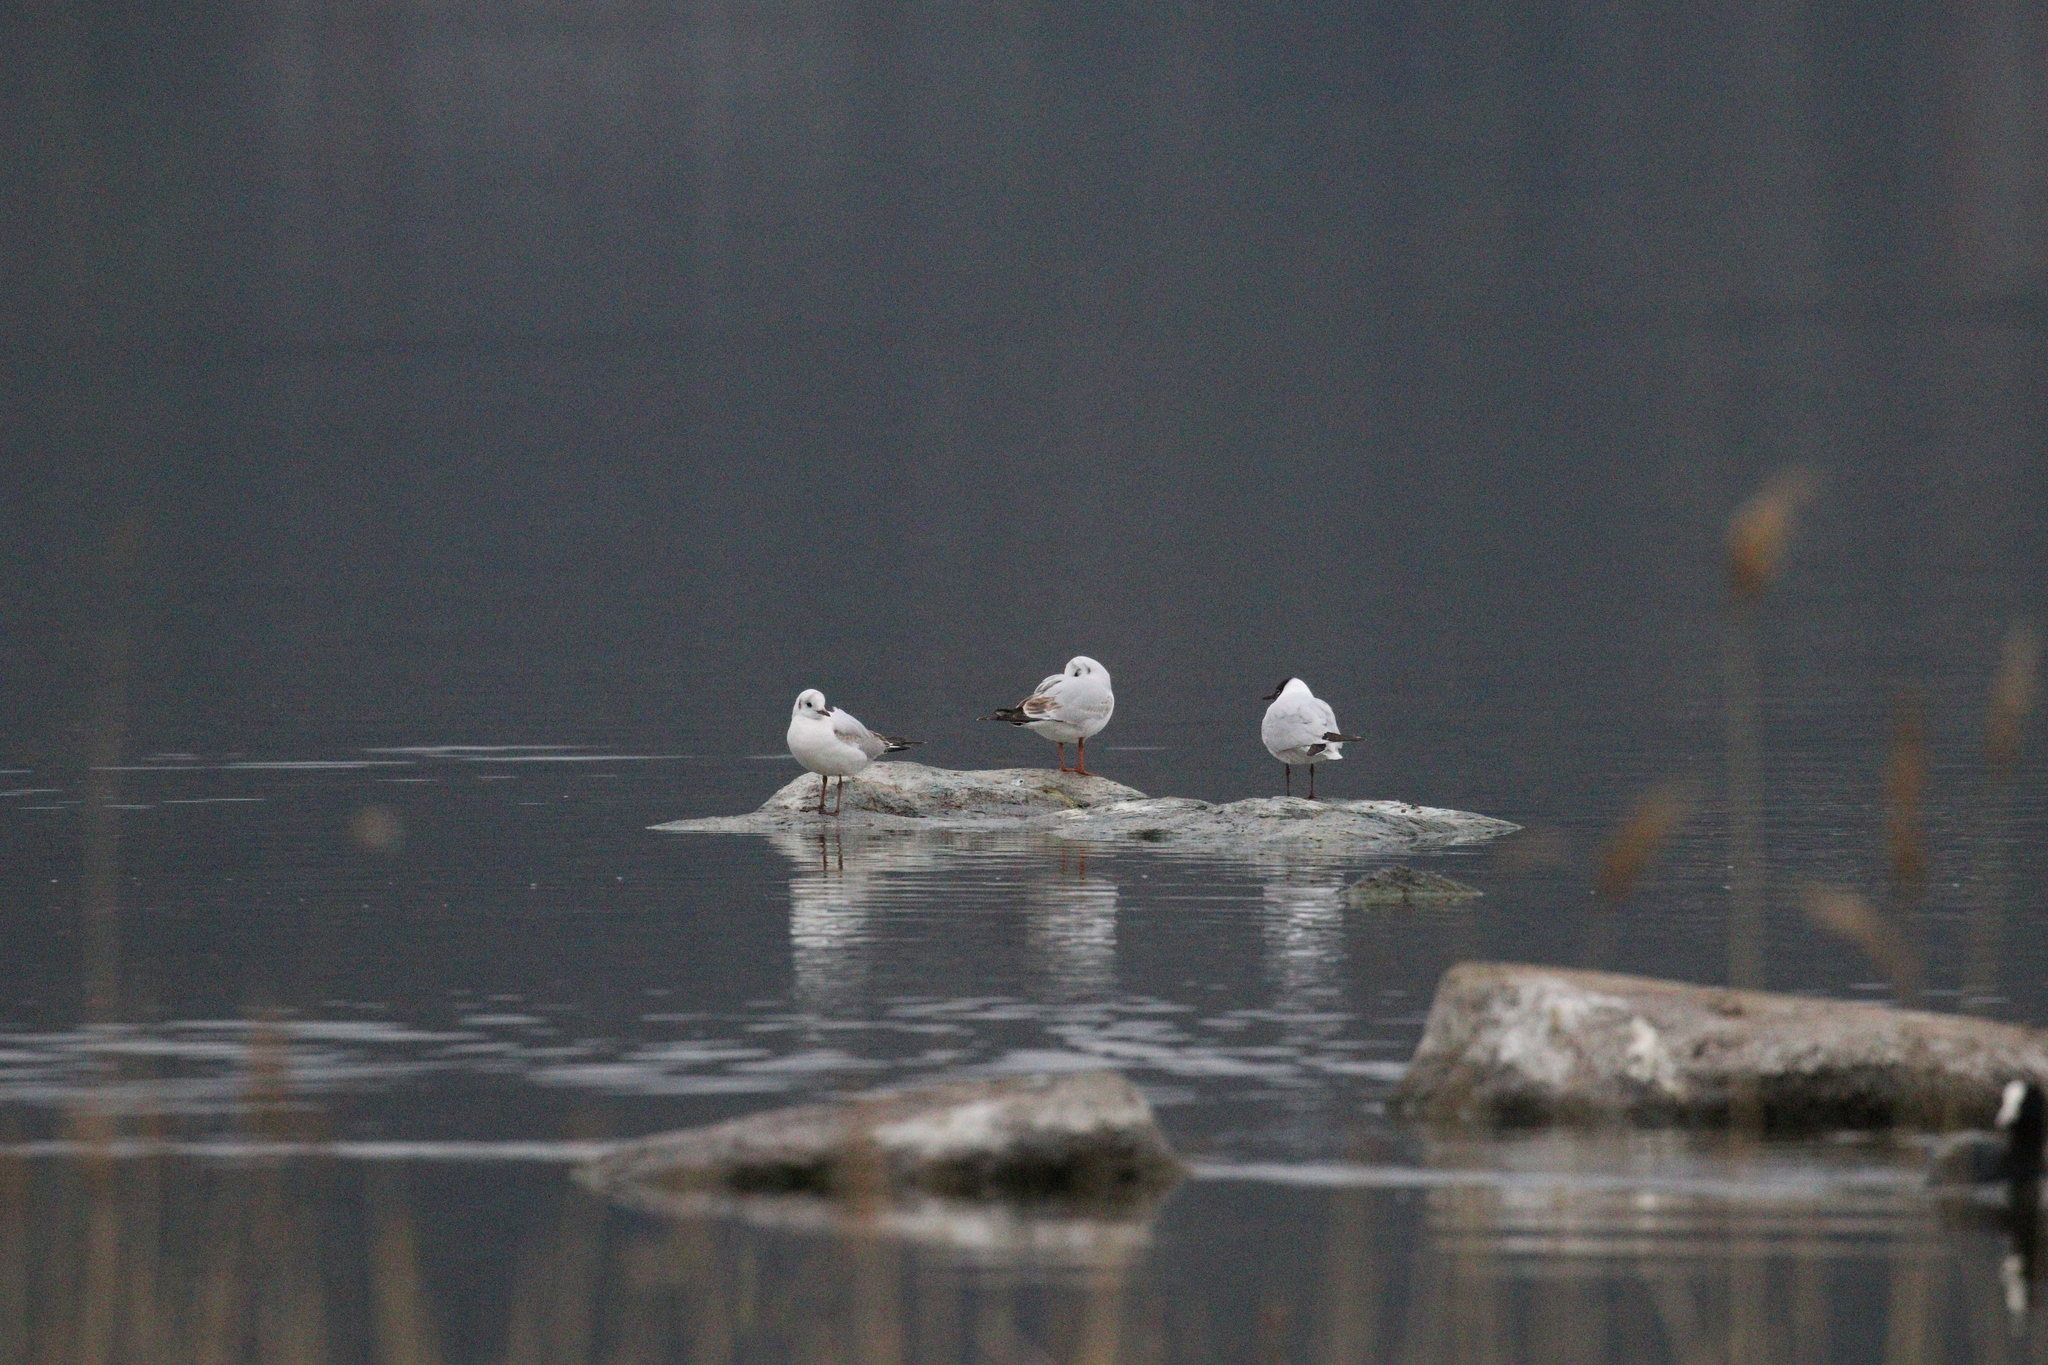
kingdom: Animalia
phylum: Chordata
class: Aves
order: Charadriiformes
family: Laridae
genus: Chroicocephalus
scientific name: Chroicocephalus ridibundus
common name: Black-headed gull
